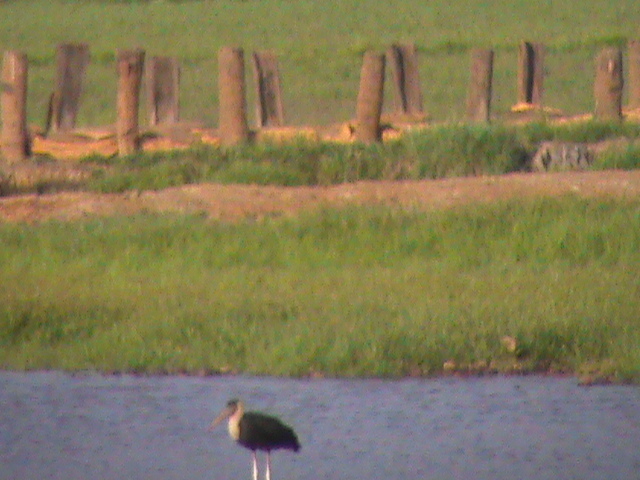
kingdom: Animalia
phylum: Chordata
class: Aves
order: Ciconiiformes
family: Ciconiidae
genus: Ciconia
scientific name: Ciconia episcopus
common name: Woolly-necked stork
